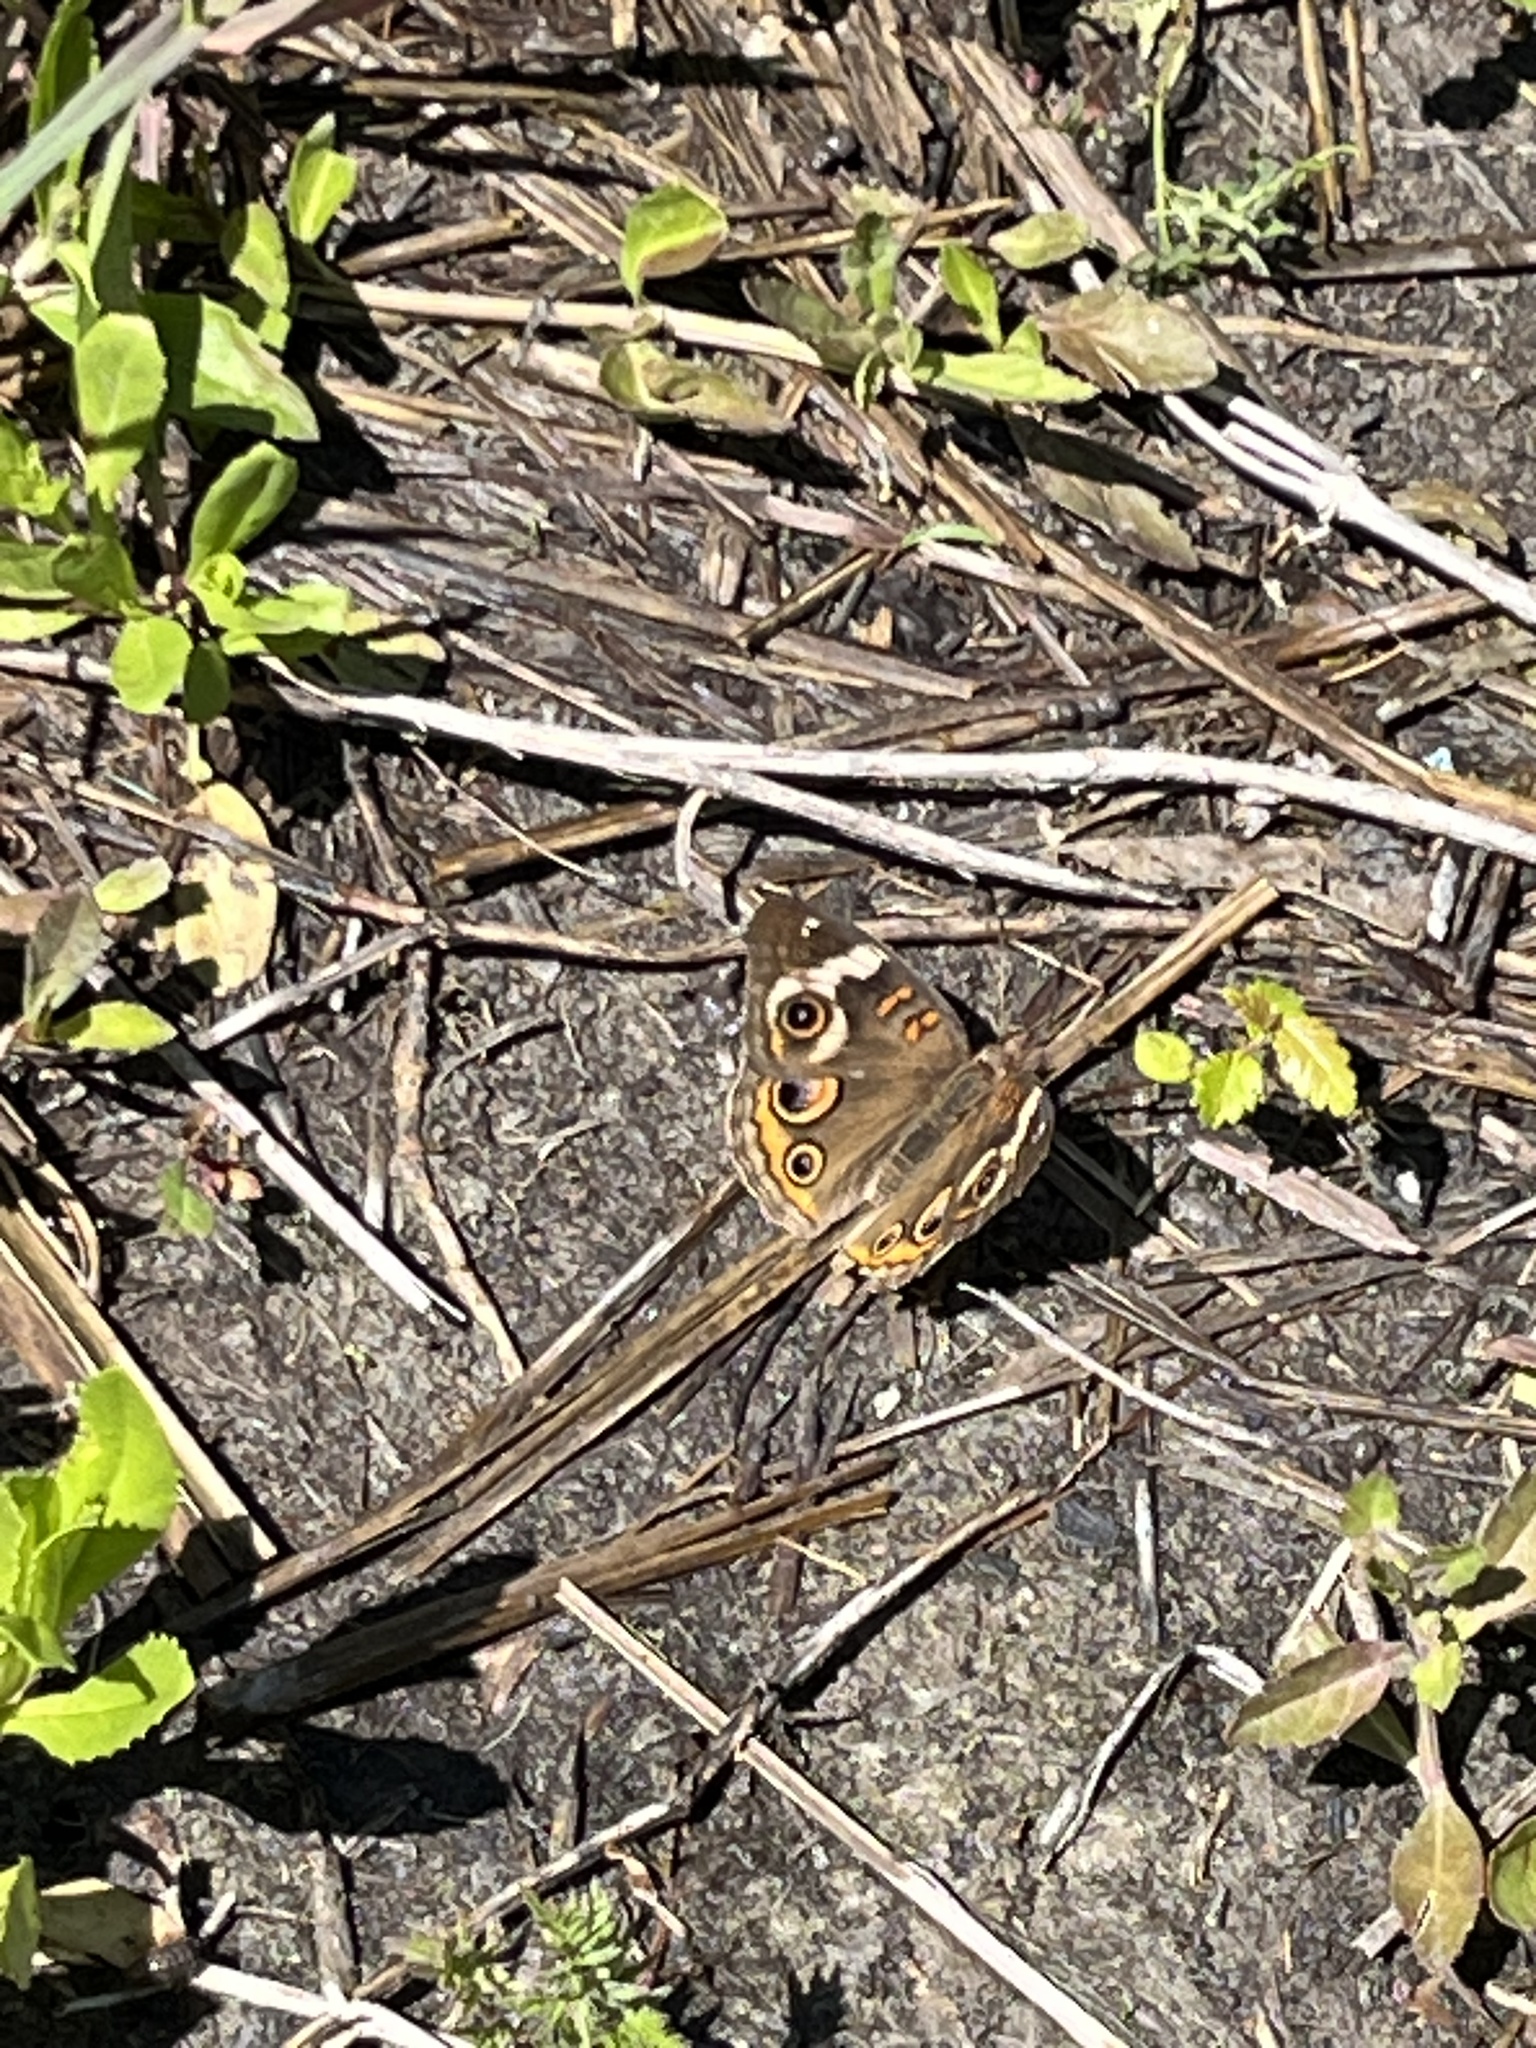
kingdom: Animalia
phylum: Arthropoda
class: Insecta
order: Lepidoptera
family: Nymphalidae
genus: Junonia
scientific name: Junonia coenia
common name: Common buckeye
